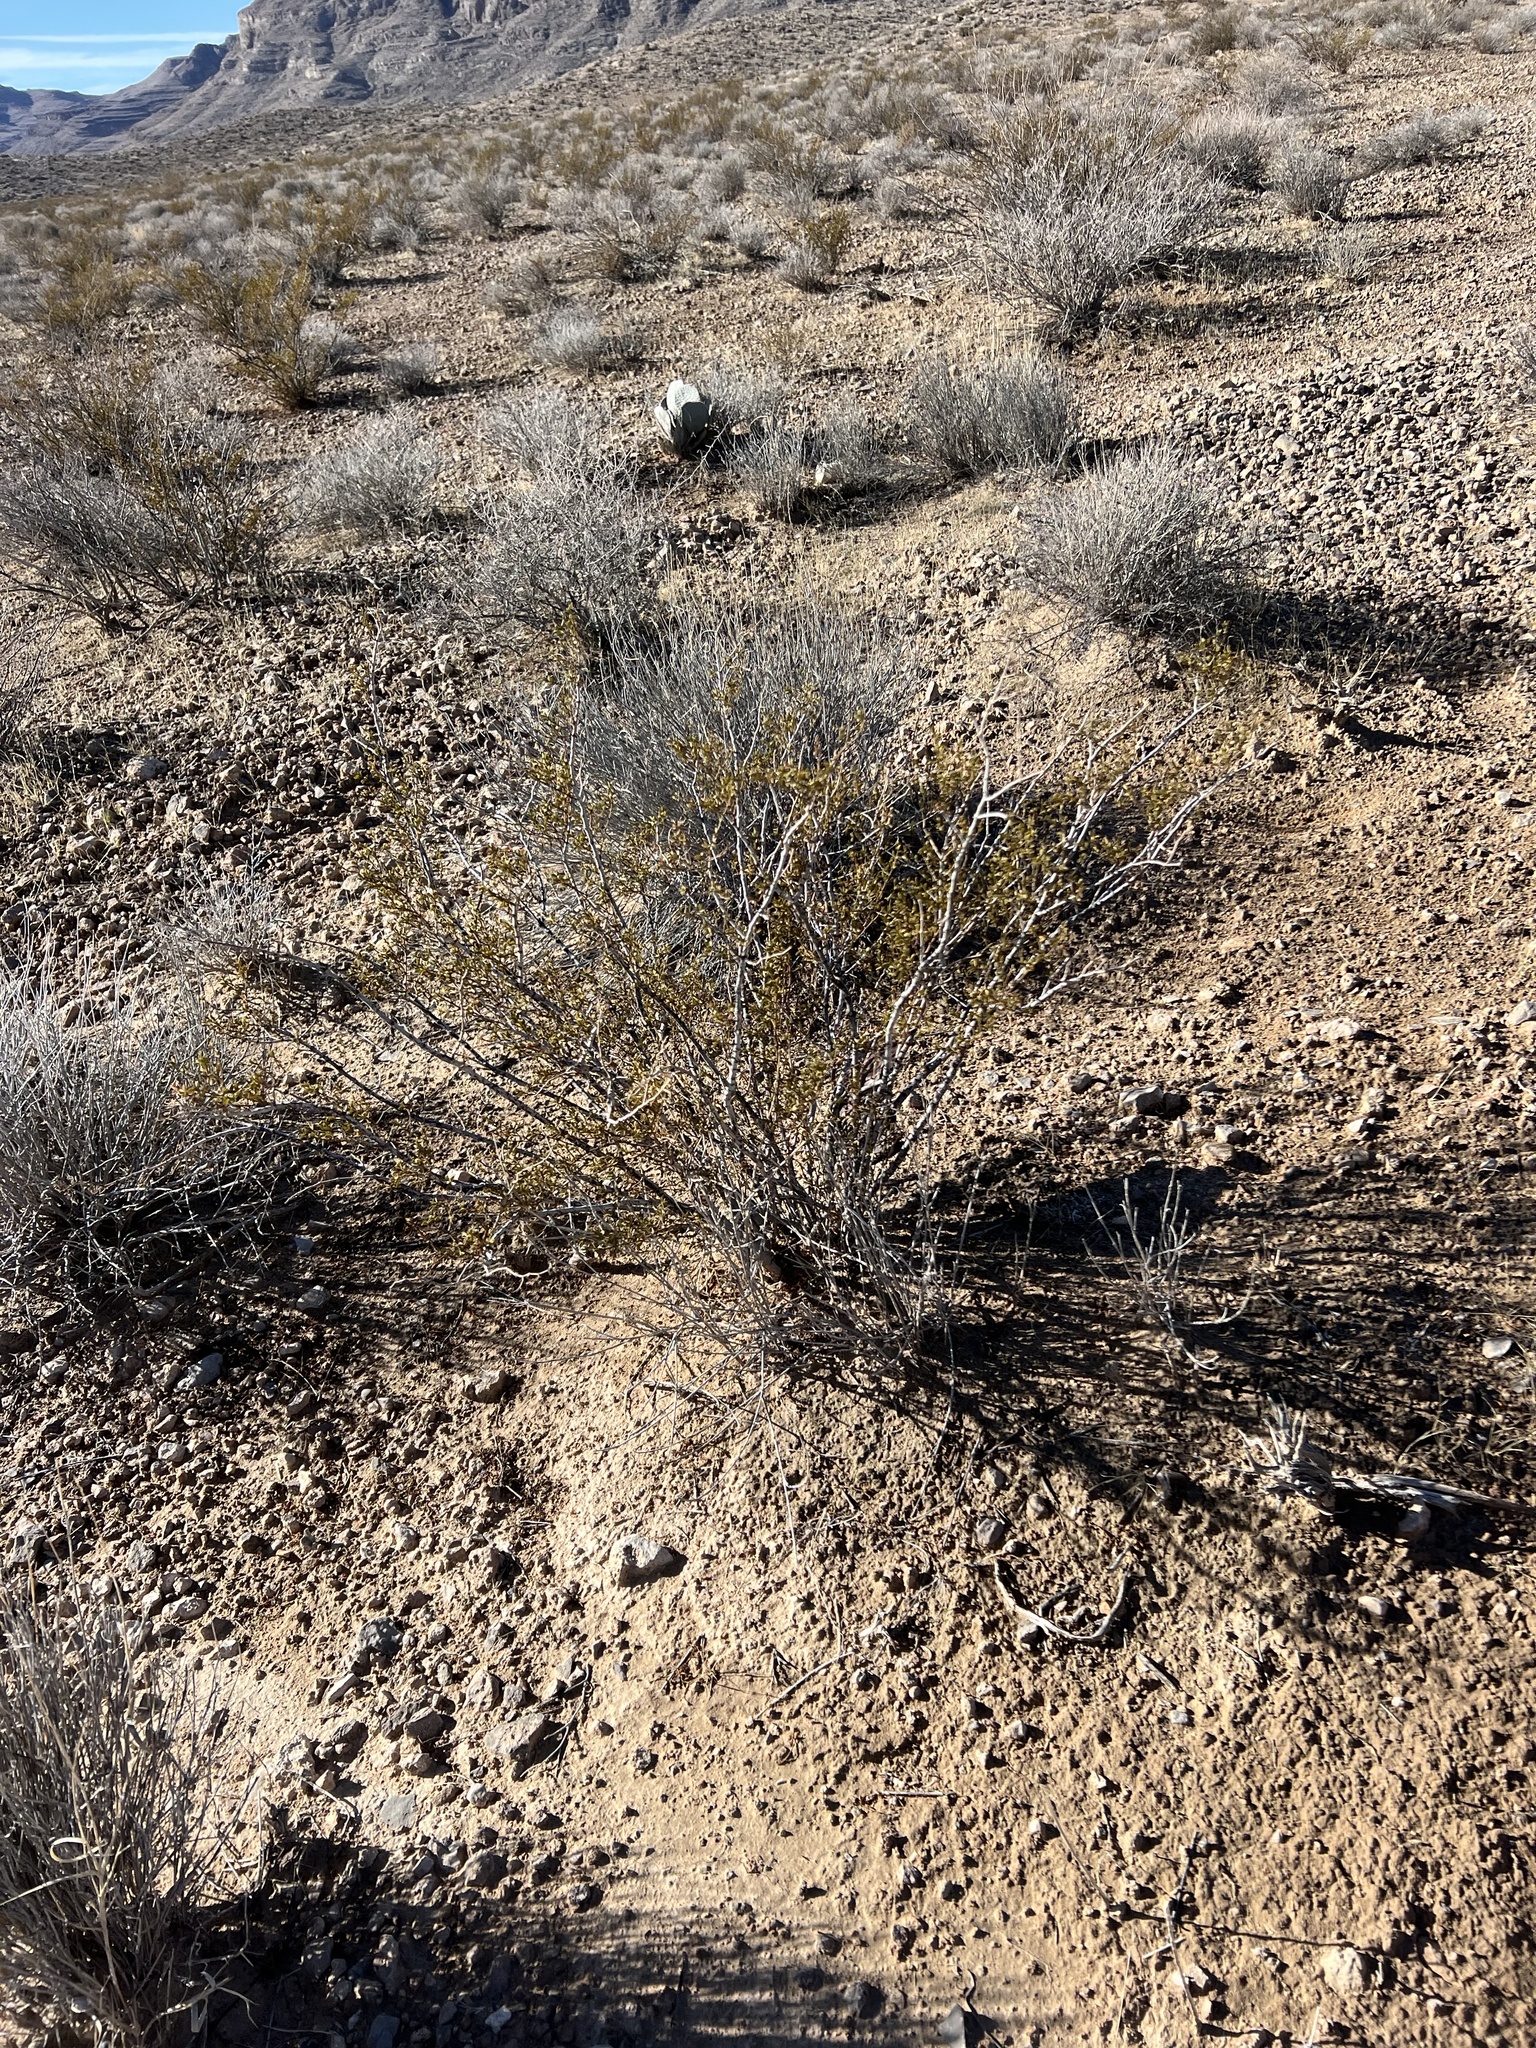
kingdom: Plantae
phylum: Tracheophyta
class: Magnoliopsida
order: Zygophyllales
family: Zygophyllaceae
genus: Larrea
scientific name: Larrea tridentata
